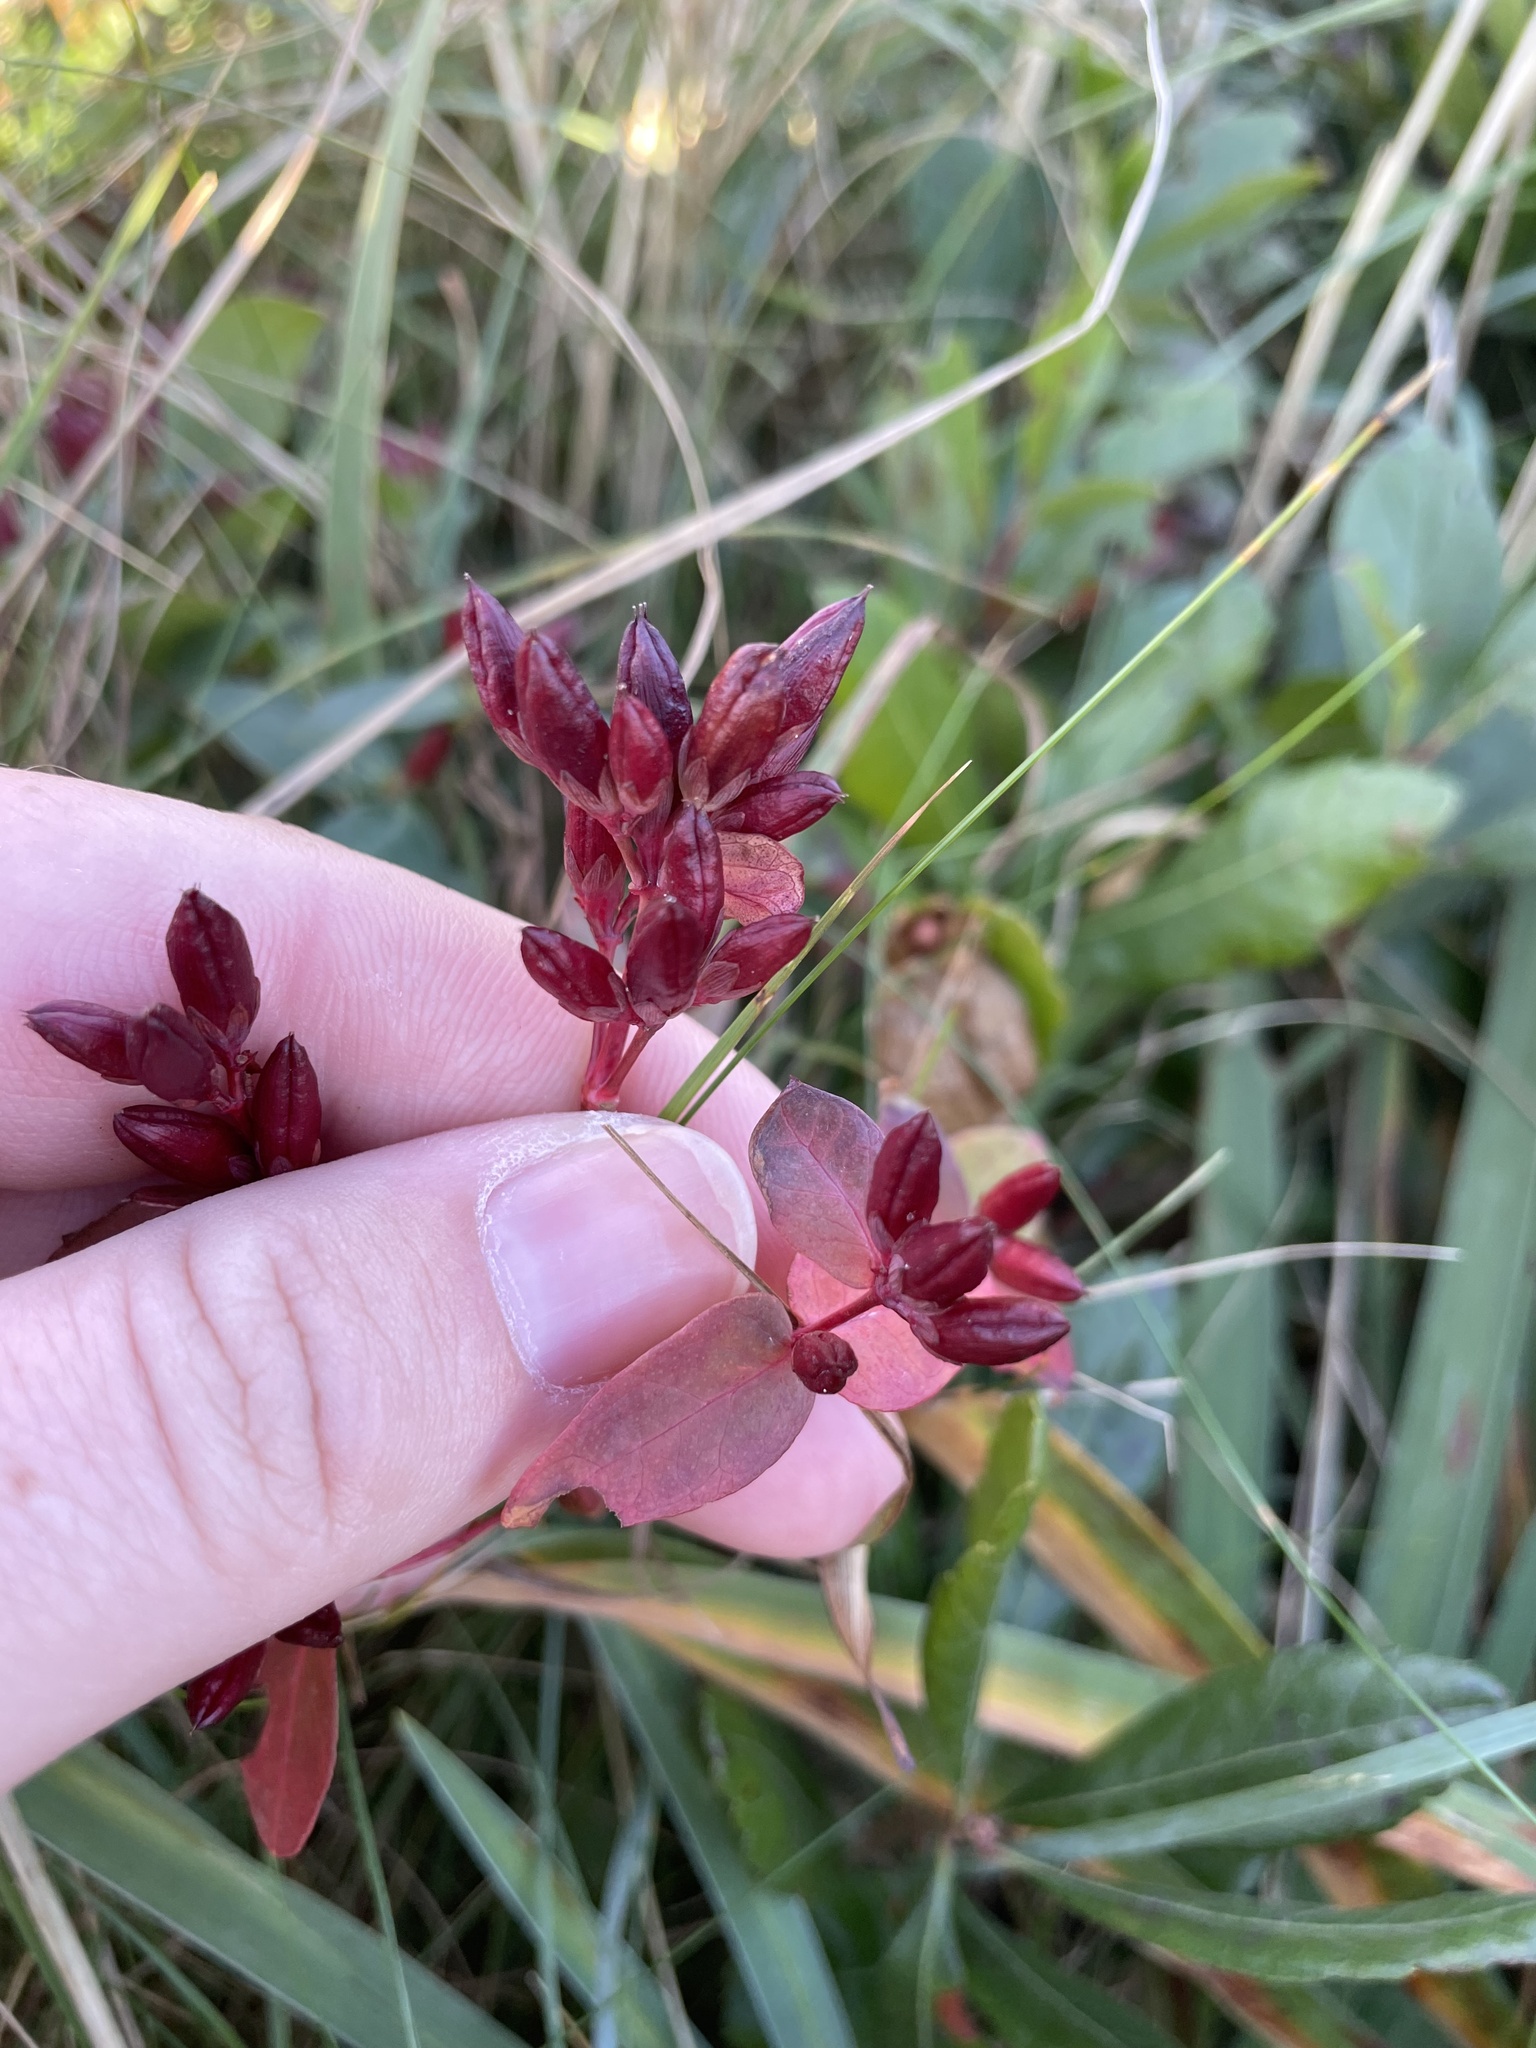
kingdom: Plantae
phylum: Tracheophyta
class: Magnoliopsida
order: Malpighiales
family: Hypericaceae
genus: Triadenum
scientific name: Triadenum fraseri
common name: Fraser's marsh st. johnswort
